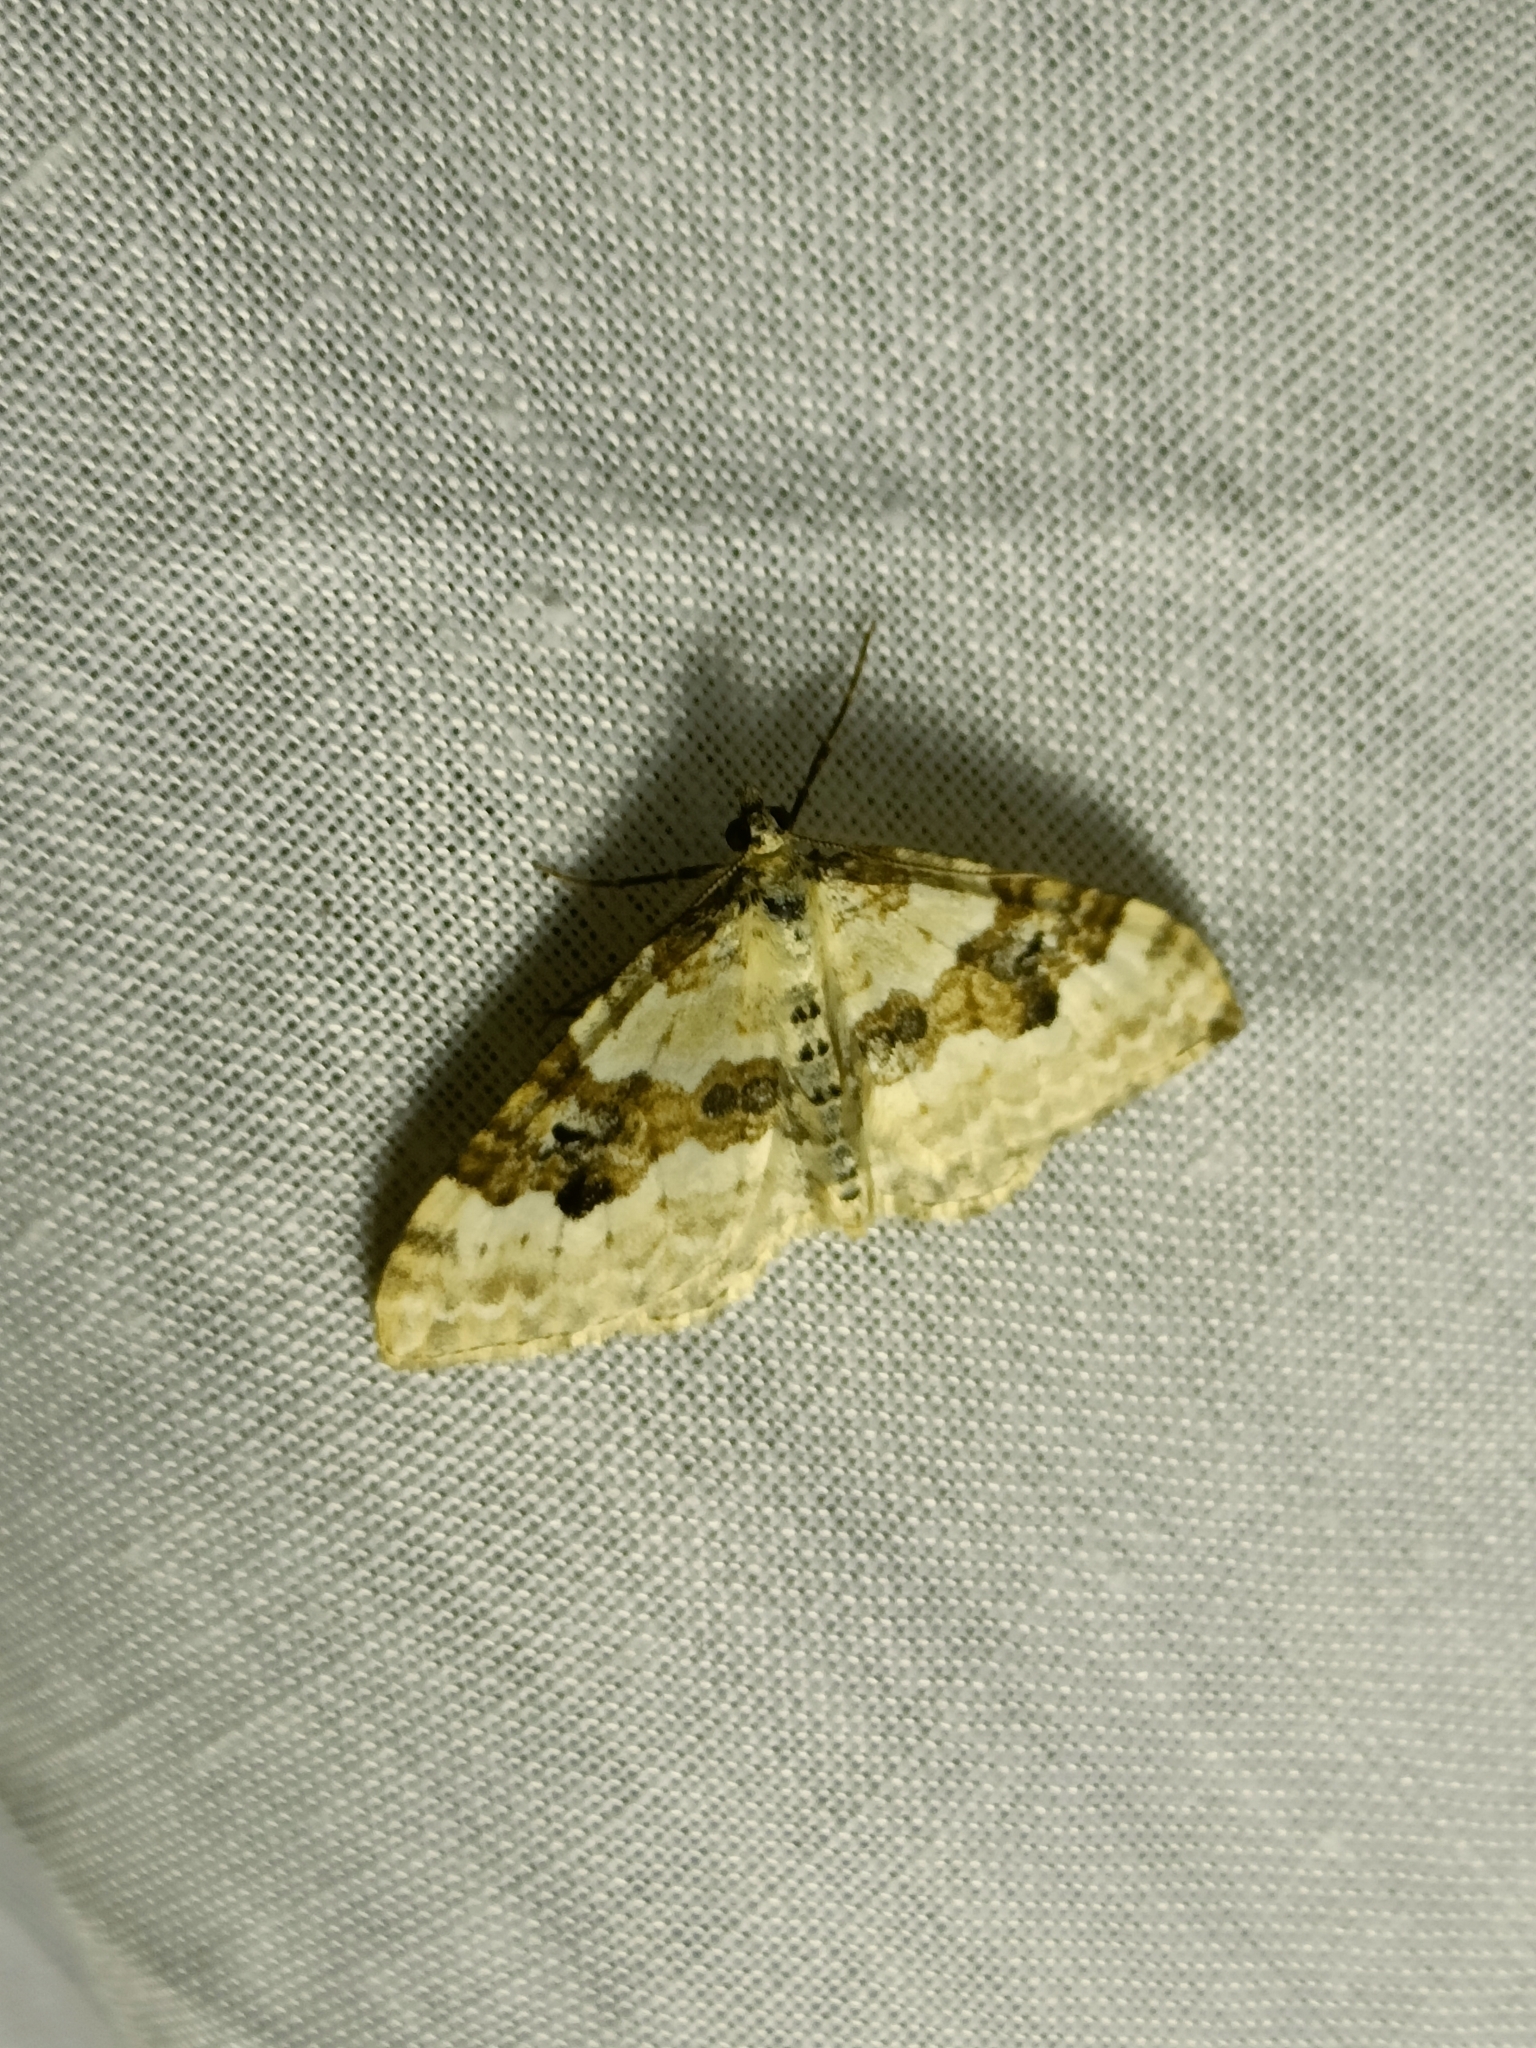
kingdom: Animalia
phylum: Arthropoda
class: Insecta
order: Lepidoptera
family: Geometridae
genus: Xanthorhoe
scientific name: Xanthorhoe montanata
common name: Silver-ground carpet
